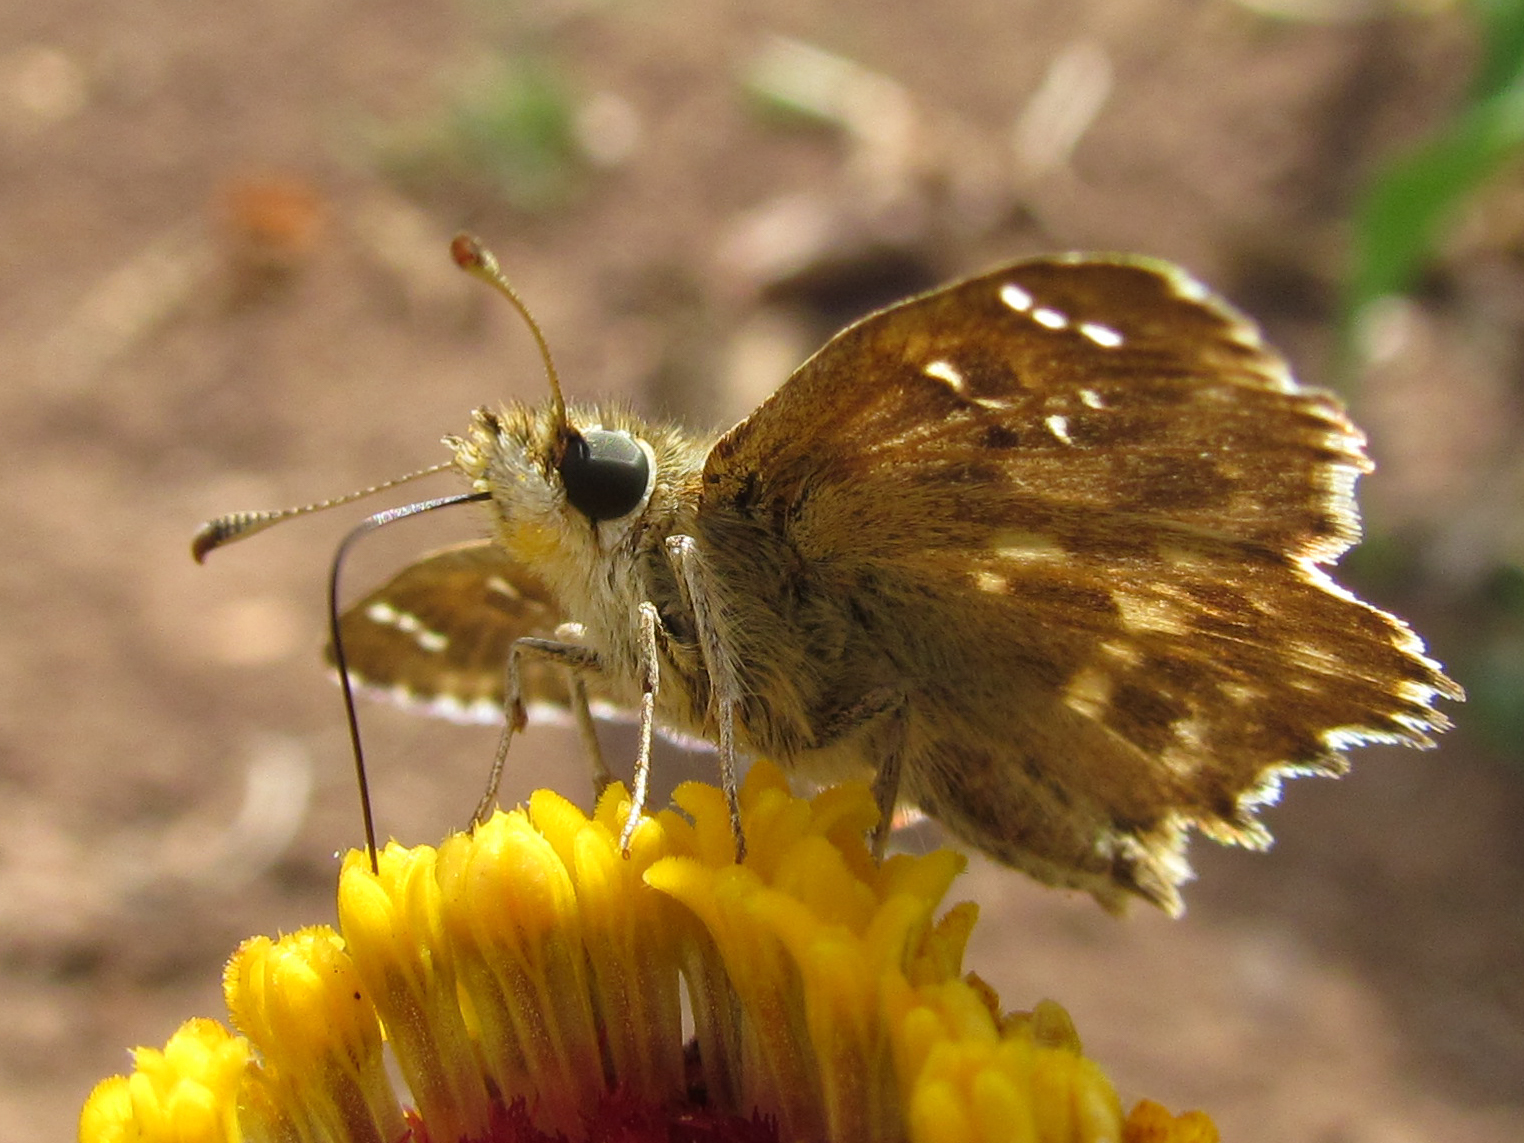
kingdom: Animalia
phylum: Arthropoda
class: Insecta
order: Lepidoptera
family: Hesperiidae
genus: Carcharodus
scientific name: Carcharodus alceae
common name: Mallow skipper
